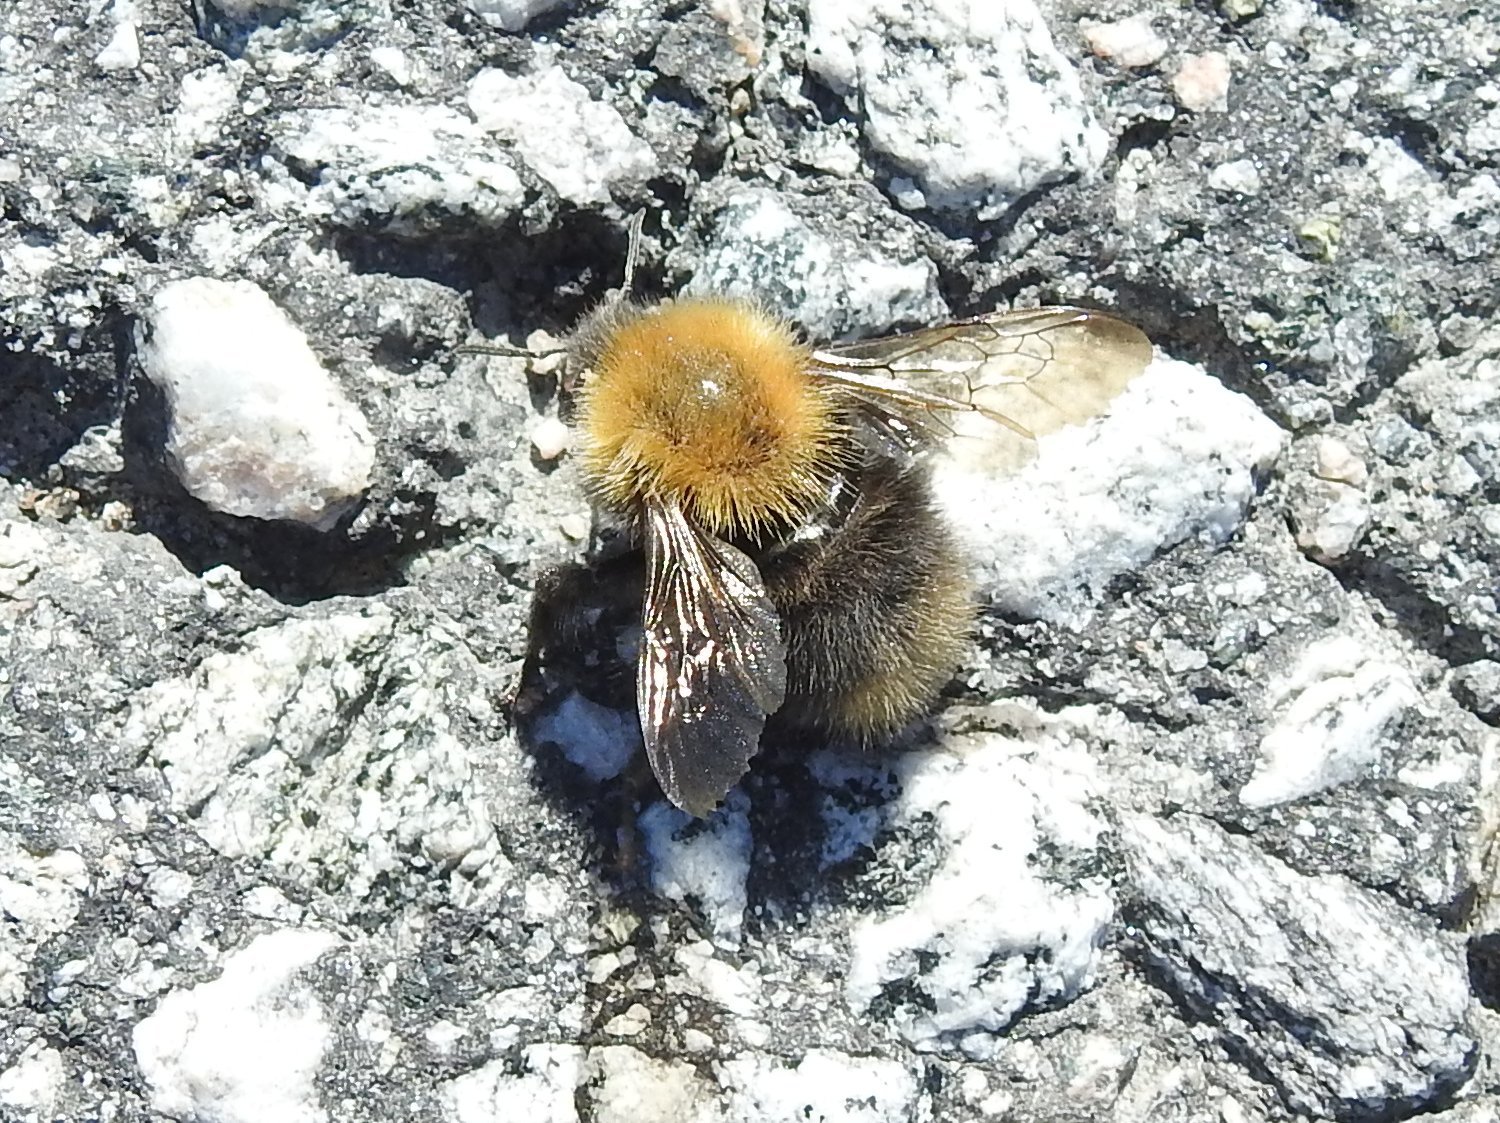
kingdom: Animalia
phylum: Arthropoda
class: Insecta
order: Hymenoptera
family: Apidae
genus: Bombus
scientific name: Bombus pascuorum
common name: Common carder bee
